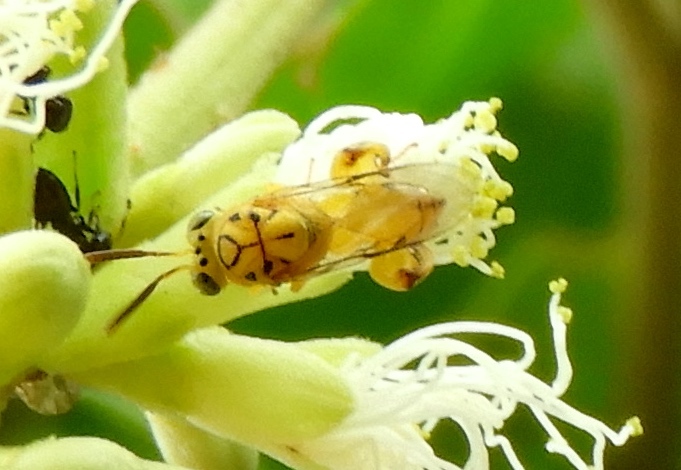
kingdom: Animalia
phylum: Arthropoda
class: Insecta
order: Hymenoptera
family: Chalcididae
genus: Conura
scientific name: Conura
